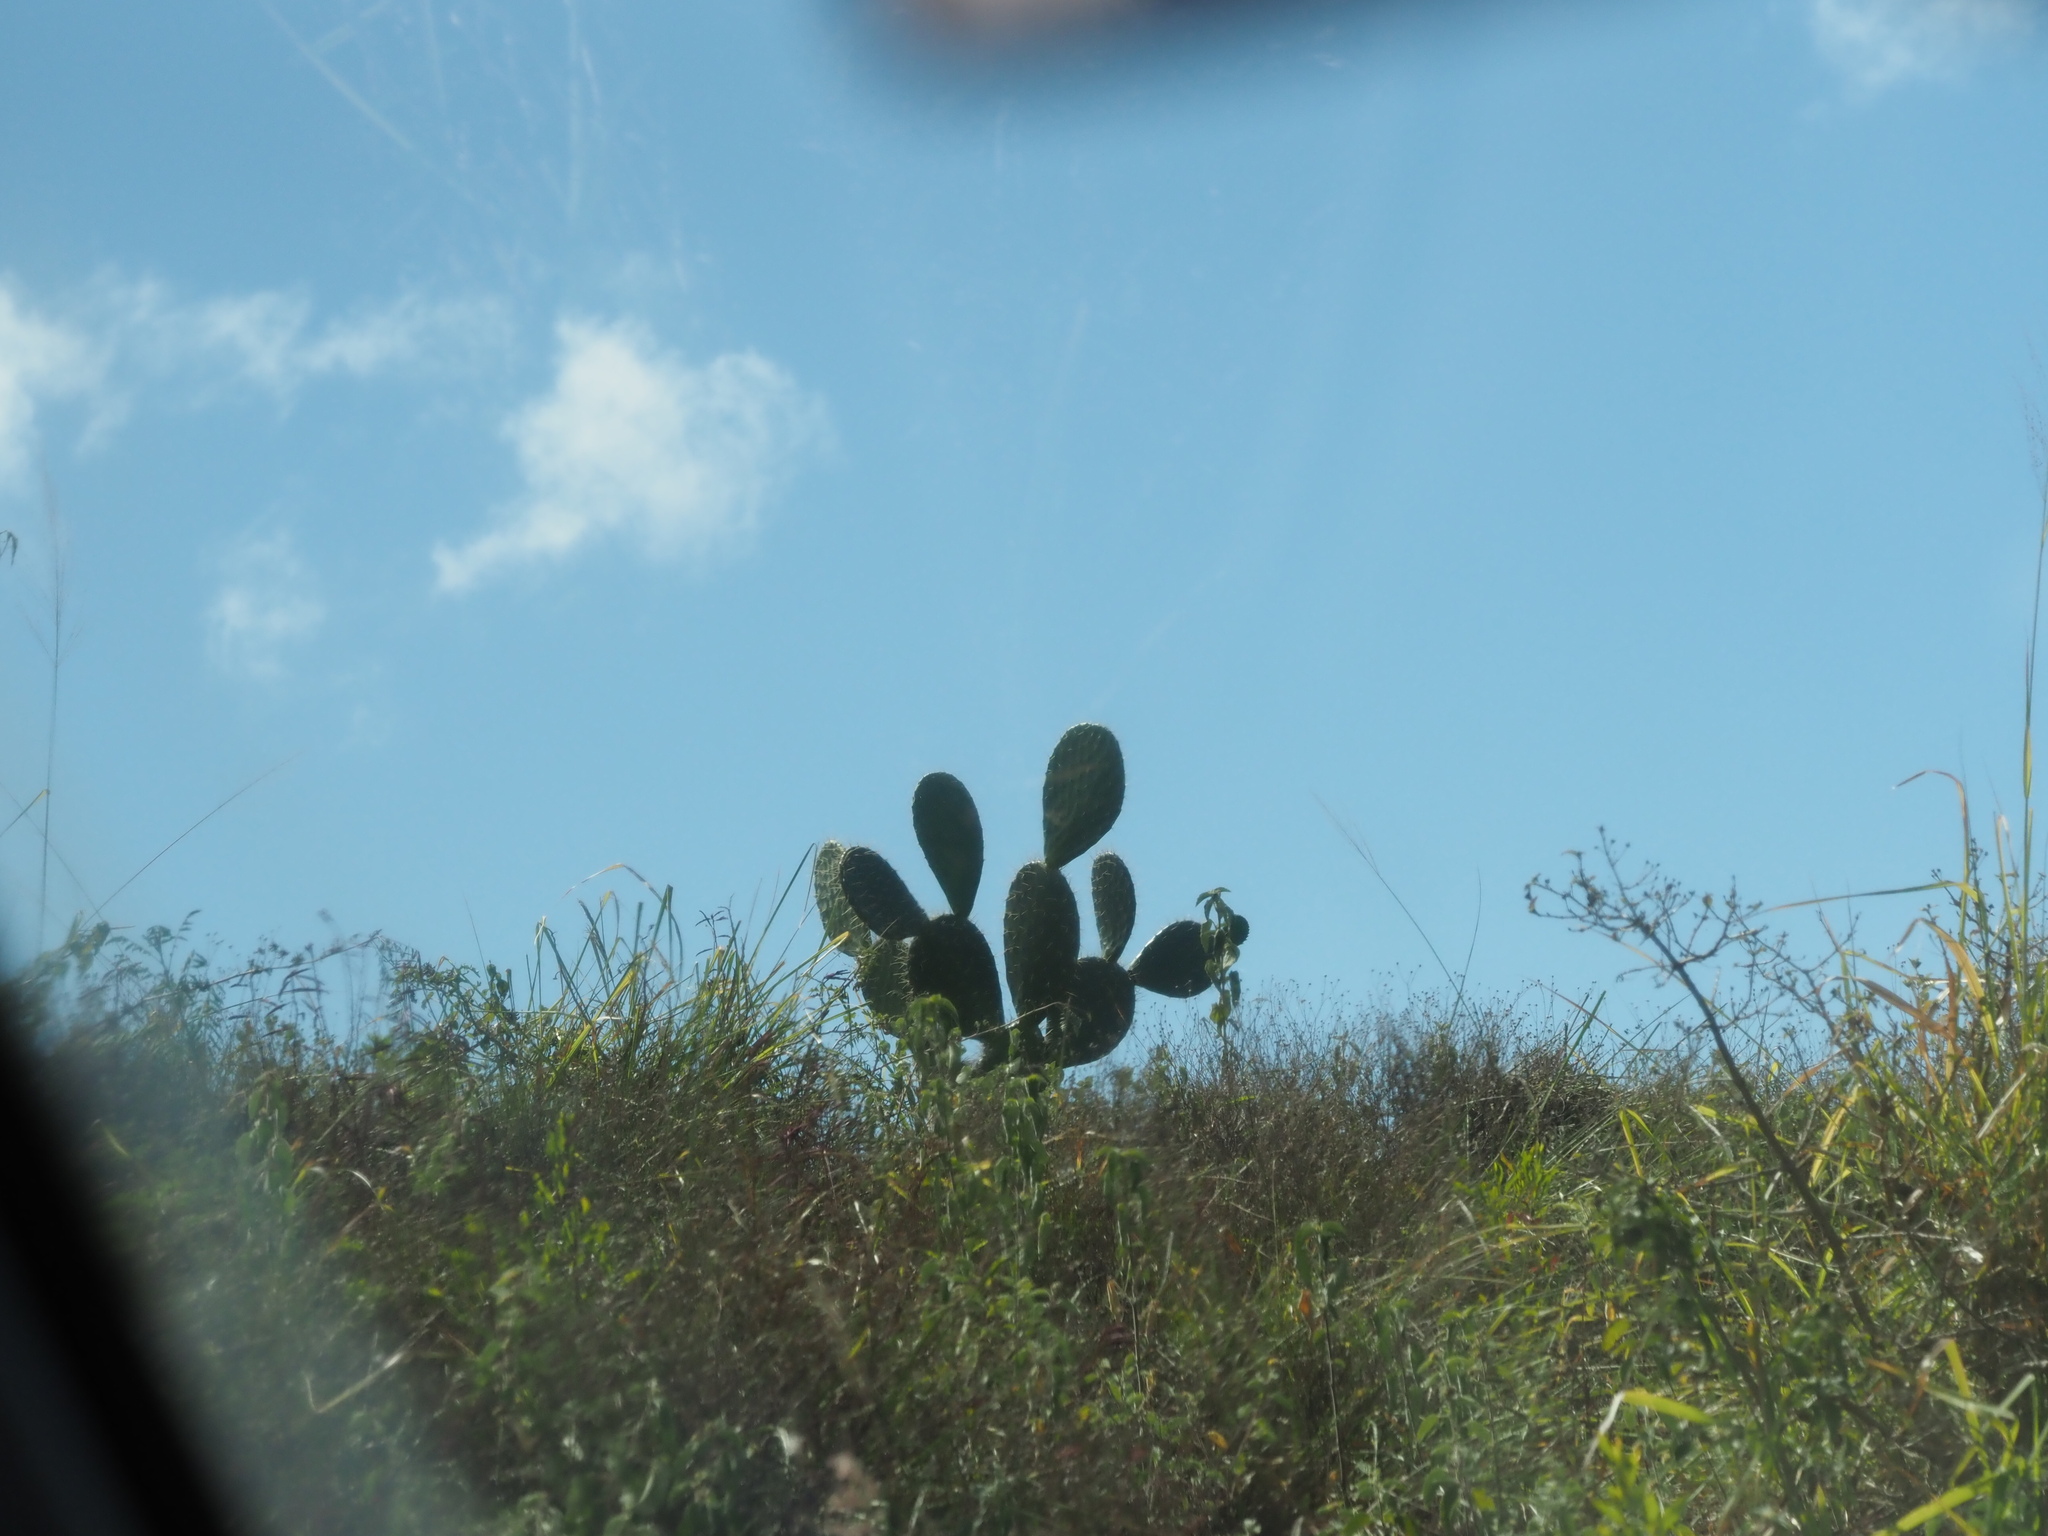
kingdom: Plantae
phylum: Tracheophyta
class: Magnoliopsida
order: Caryophyllales
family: Cactaceae
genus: Opuntia
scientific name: Opuntia ficus-indica
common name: Barbary fig
